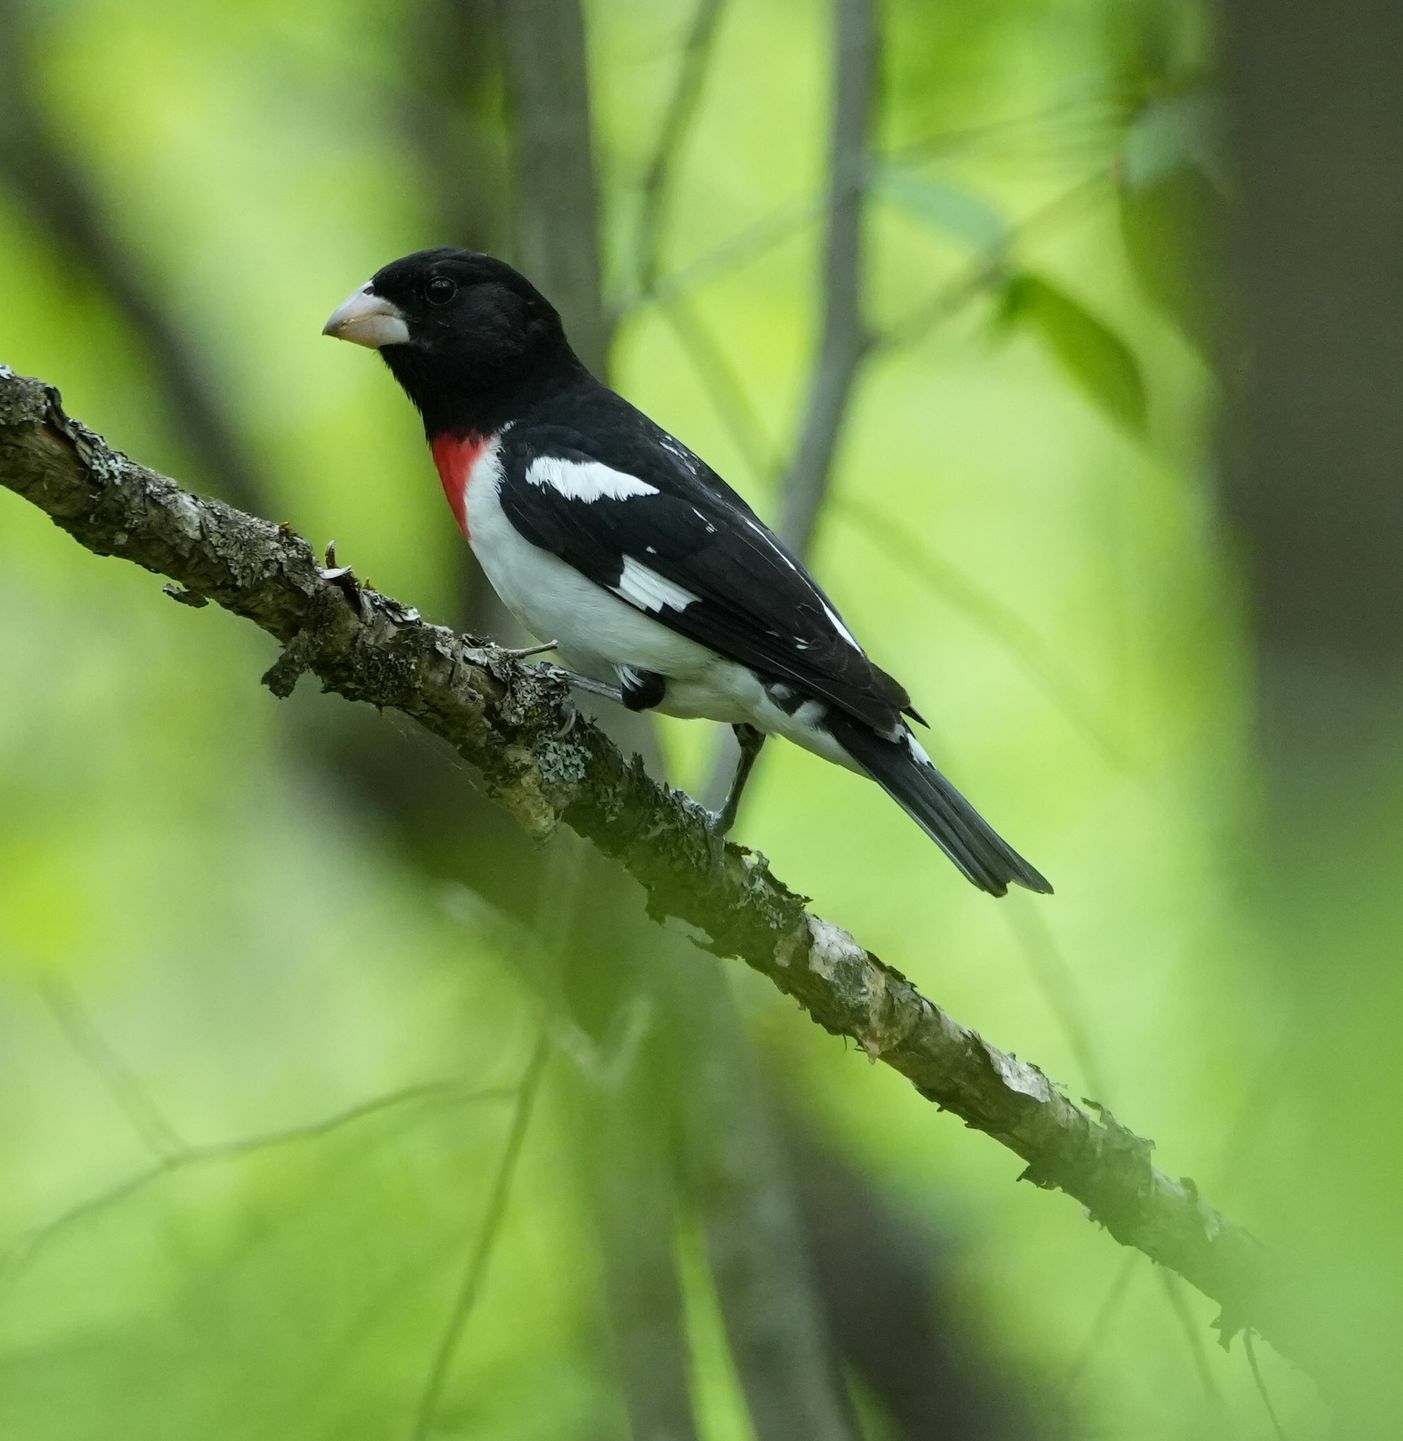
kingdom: Animalia
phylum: Chordata
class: Aves
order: Passeriformes
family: Cardinalidae
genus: Pheucticus
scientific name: Pheucticus ludovicianus
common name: Rose-breasted grosbeak
